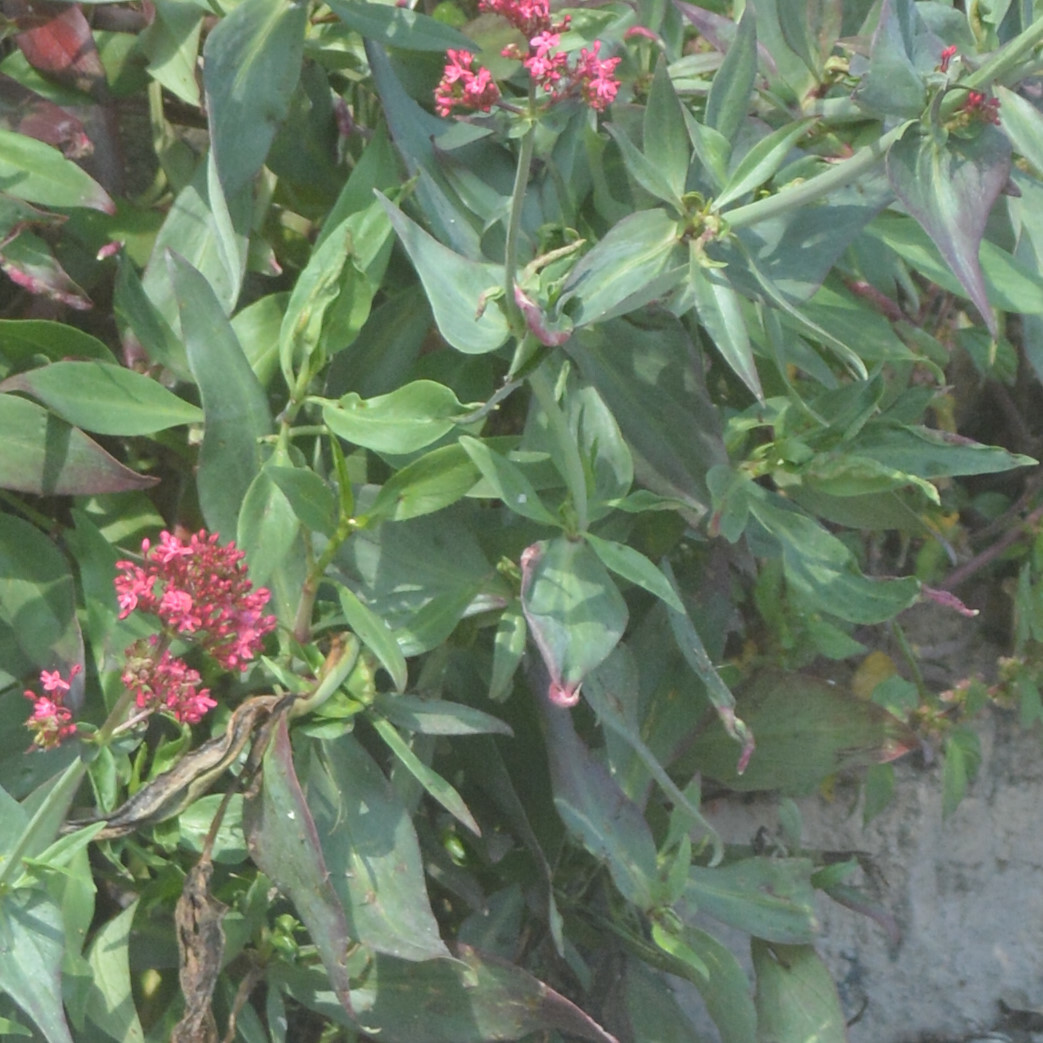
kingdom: Animalia
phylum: Arthropoda
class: Insecta
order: Hemiptera
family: Triozidae
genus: Trioza
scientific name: Trioza centranthi
